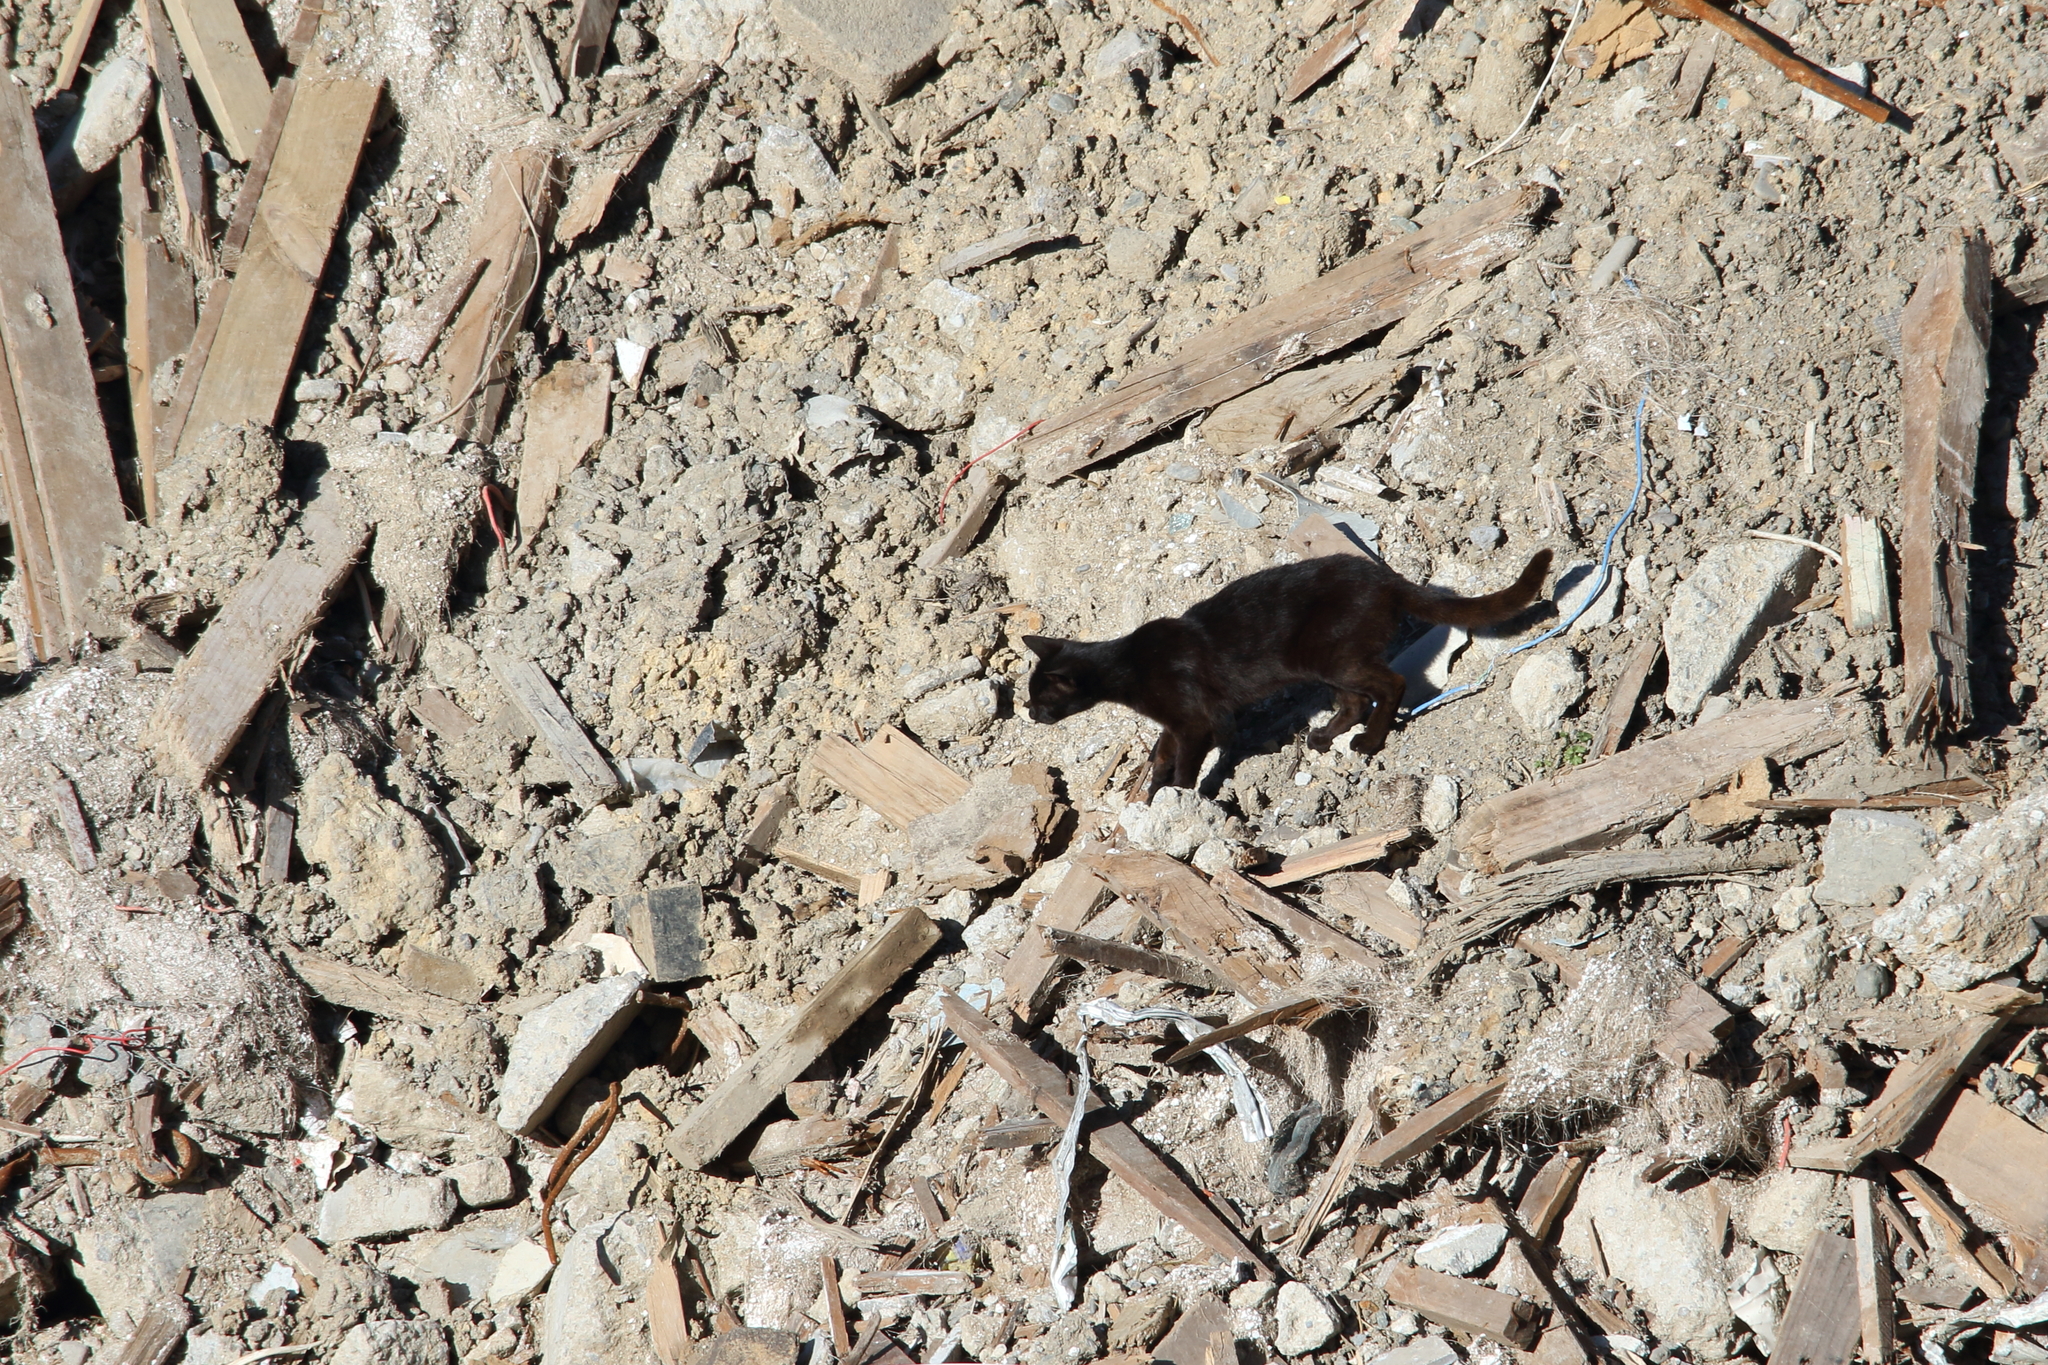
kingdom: Animalia
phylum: Chordata
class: Mammalia
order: Carnivora
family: Felidae
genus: Felis
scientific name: Felis catus
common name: Domestic cat
